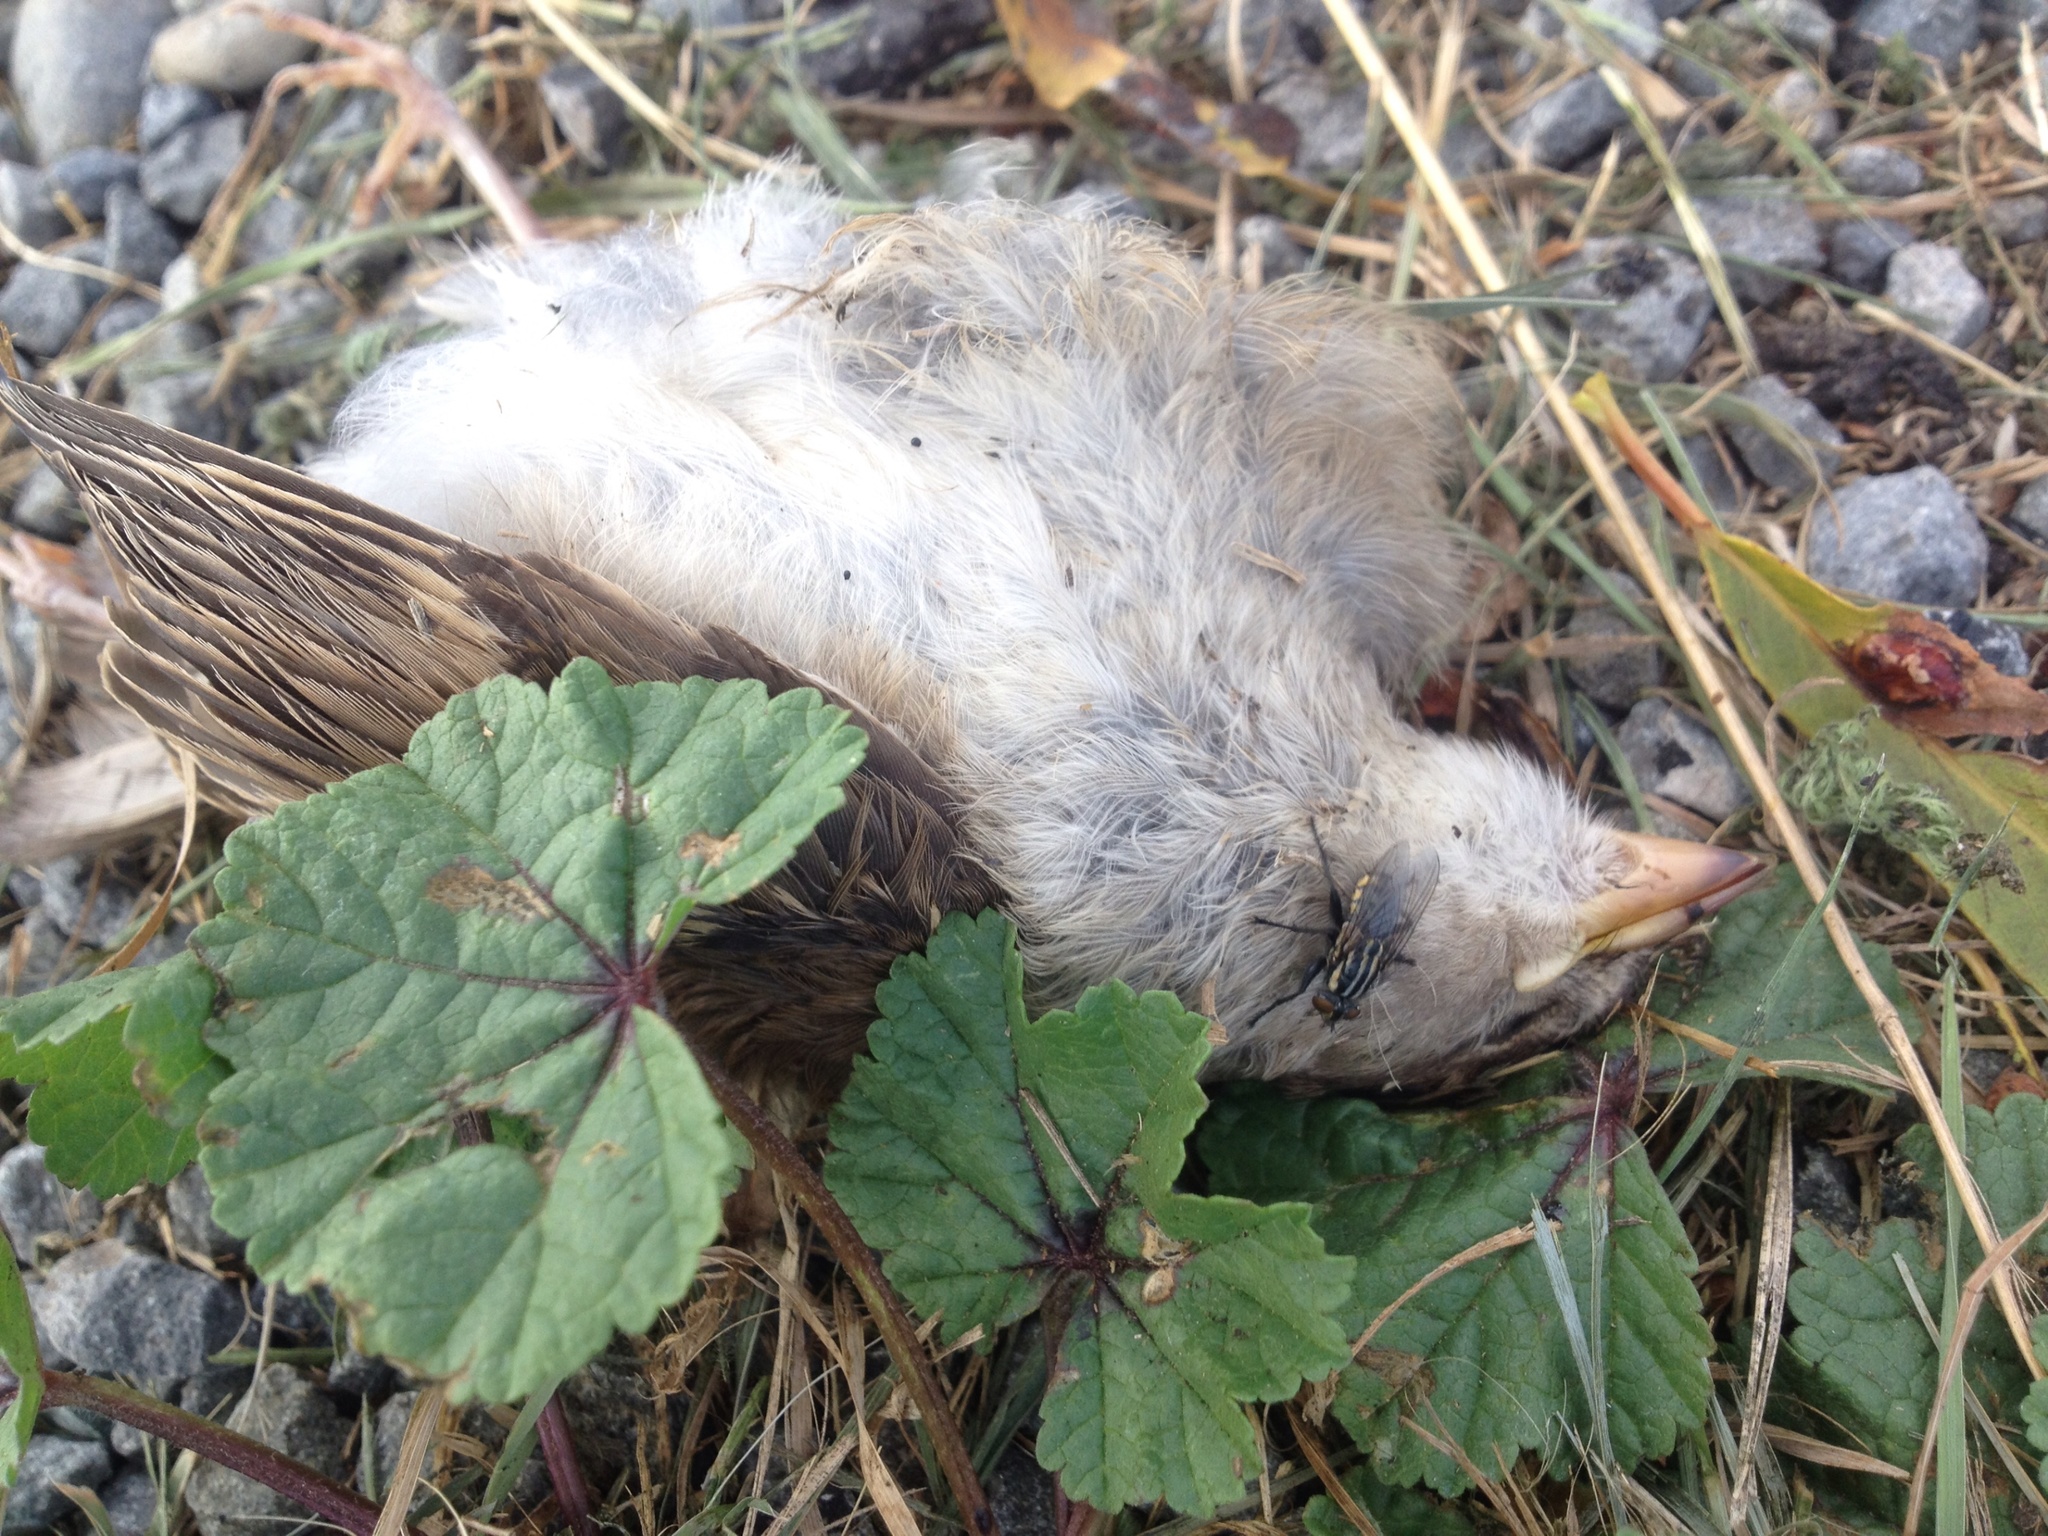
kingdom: Animalia
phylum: Chordata
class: Aves
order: Passeriformes
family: Passeridae
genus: Passer
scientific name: Passer domesticus
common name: House sparrow
